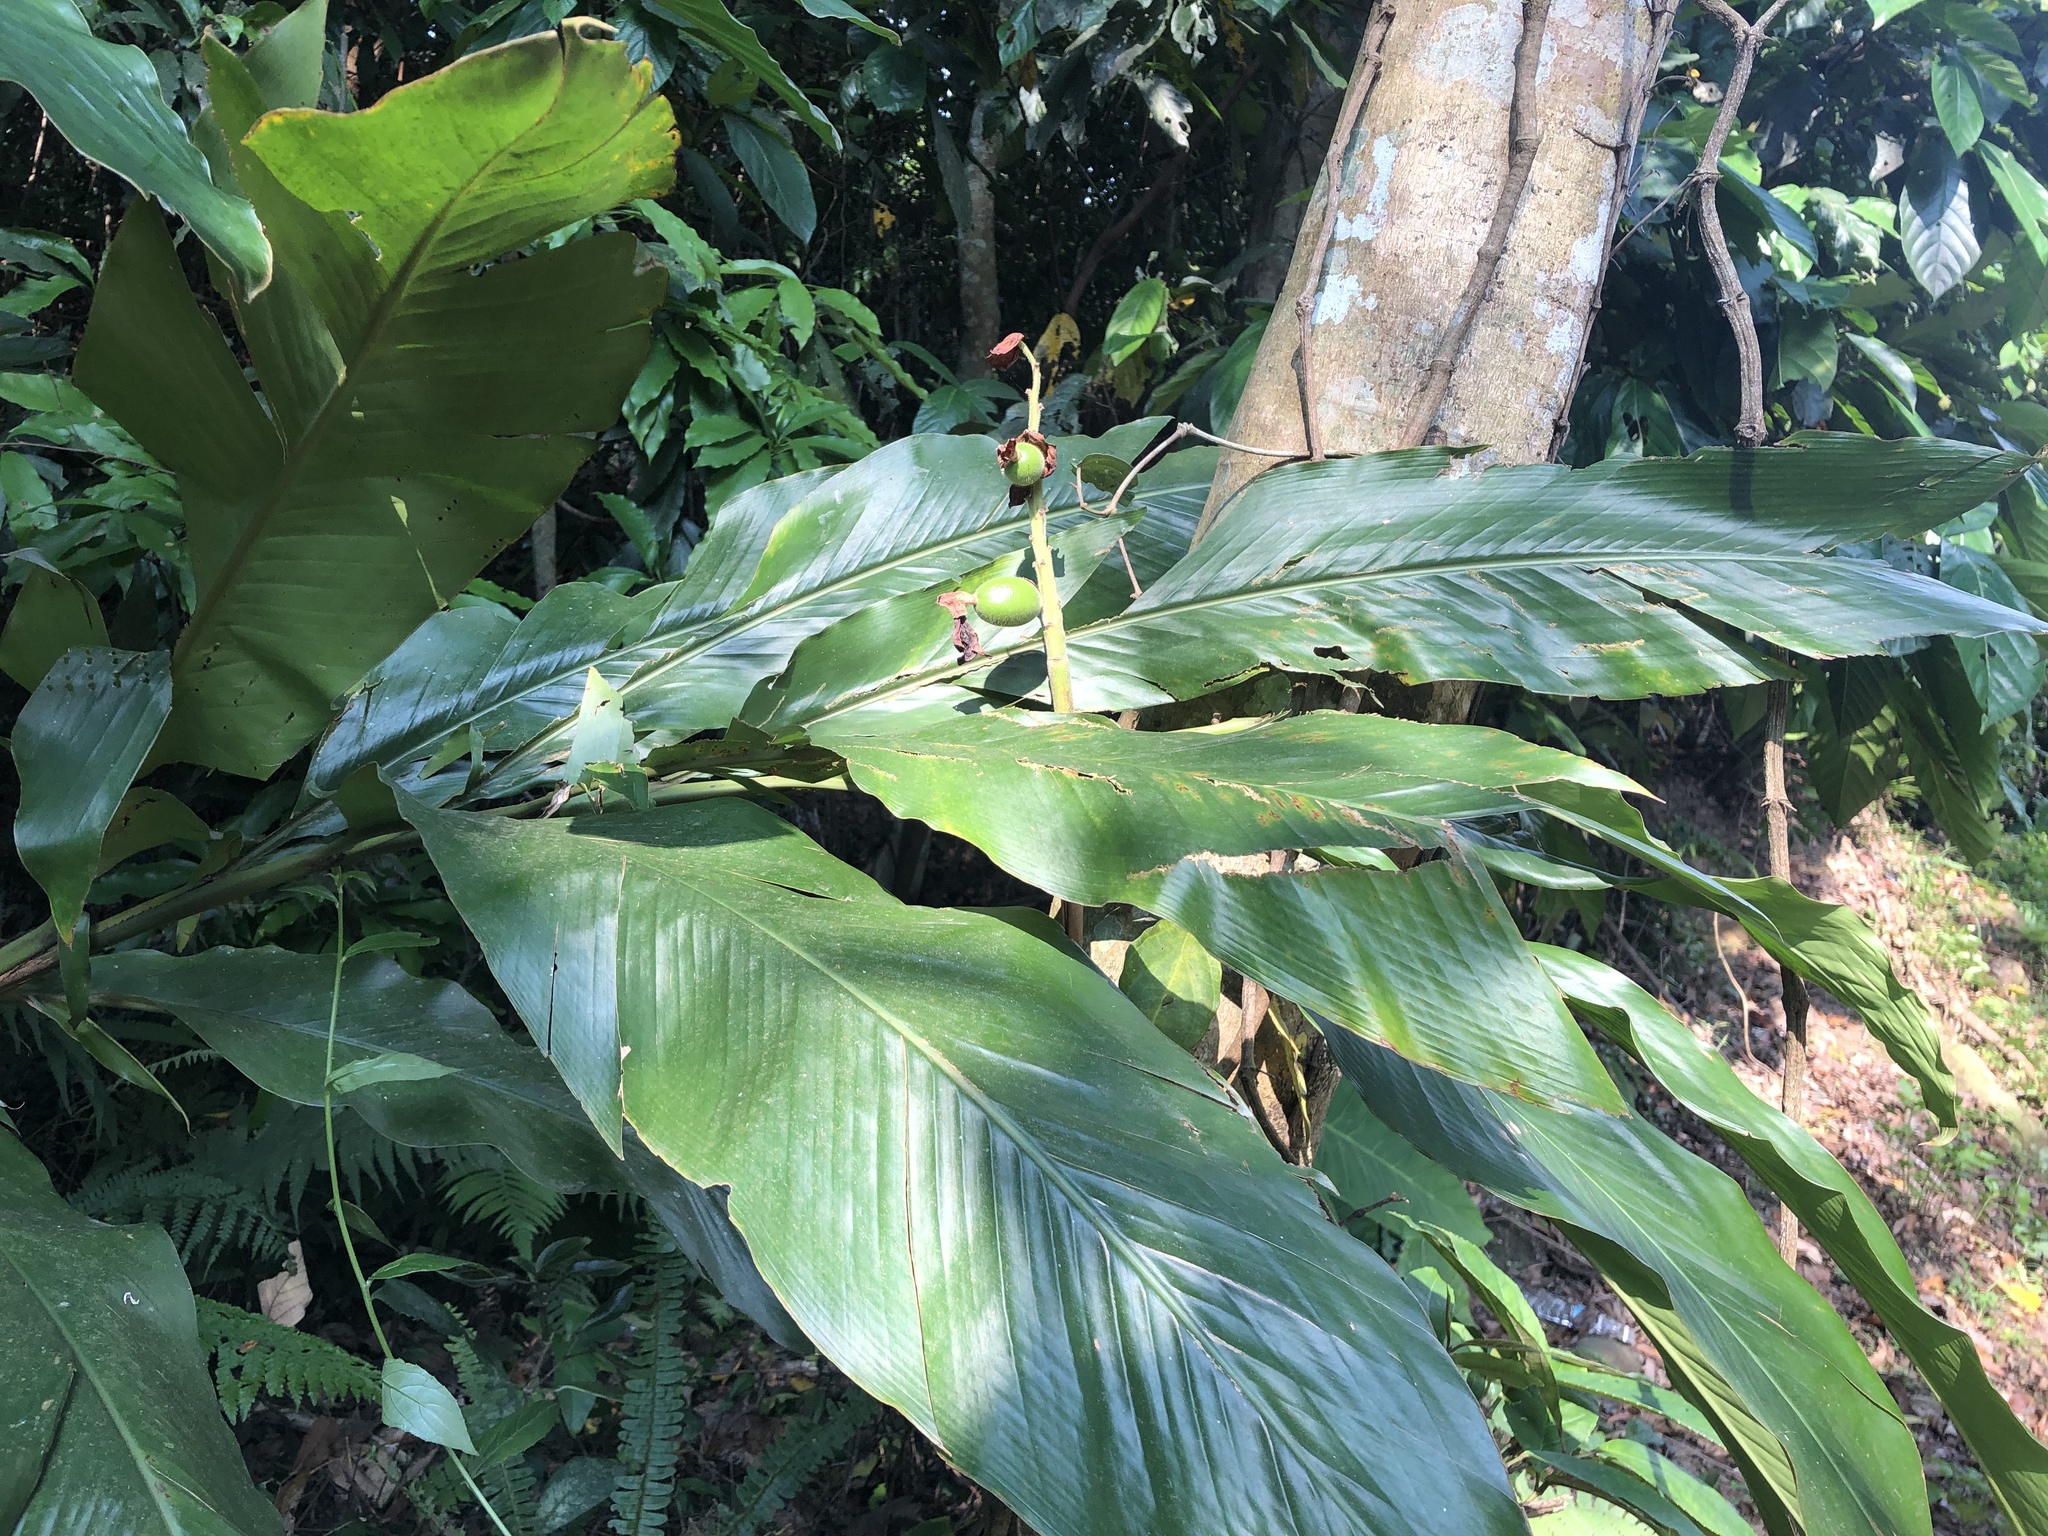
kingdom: Plantae
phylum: Tracheophyta
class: Liliopsida
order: Zingiberales
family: Zingiberaceae
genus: Alpinia
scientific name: Alpinia uraiensis
